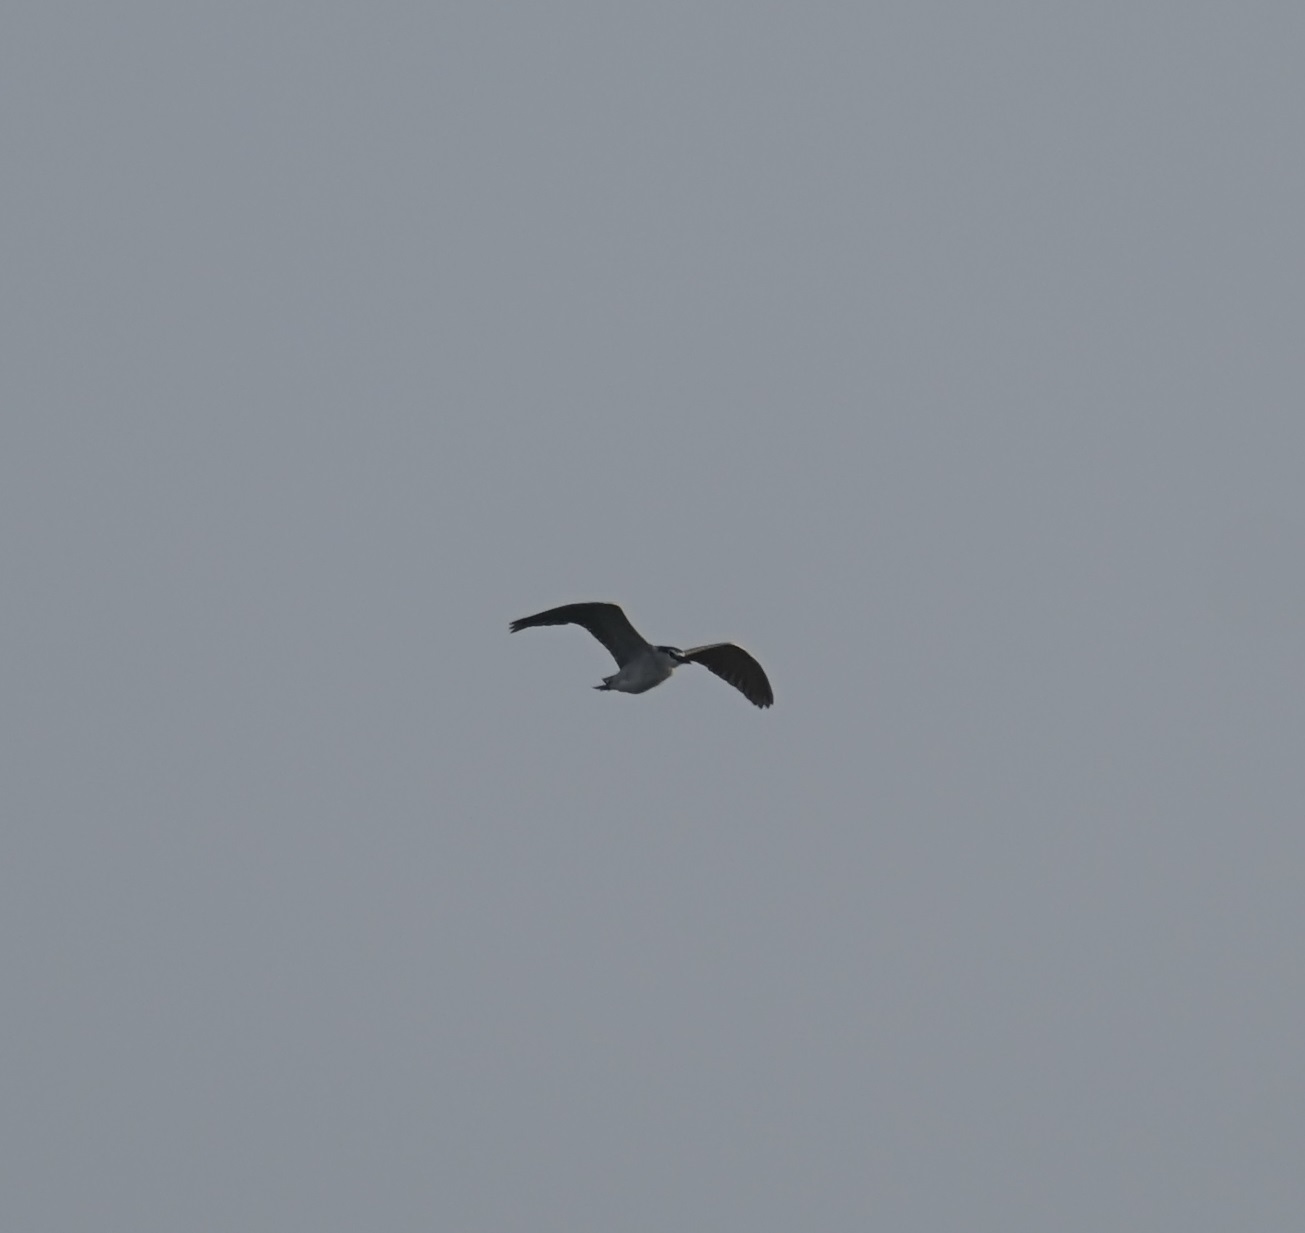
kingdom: Animalia
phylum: Chordata
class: Aves
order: Pelecaniformes
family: Ardeidae
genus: Nycticorax
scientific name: Nycticorax nycticorax
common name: Black-crowned night heron
